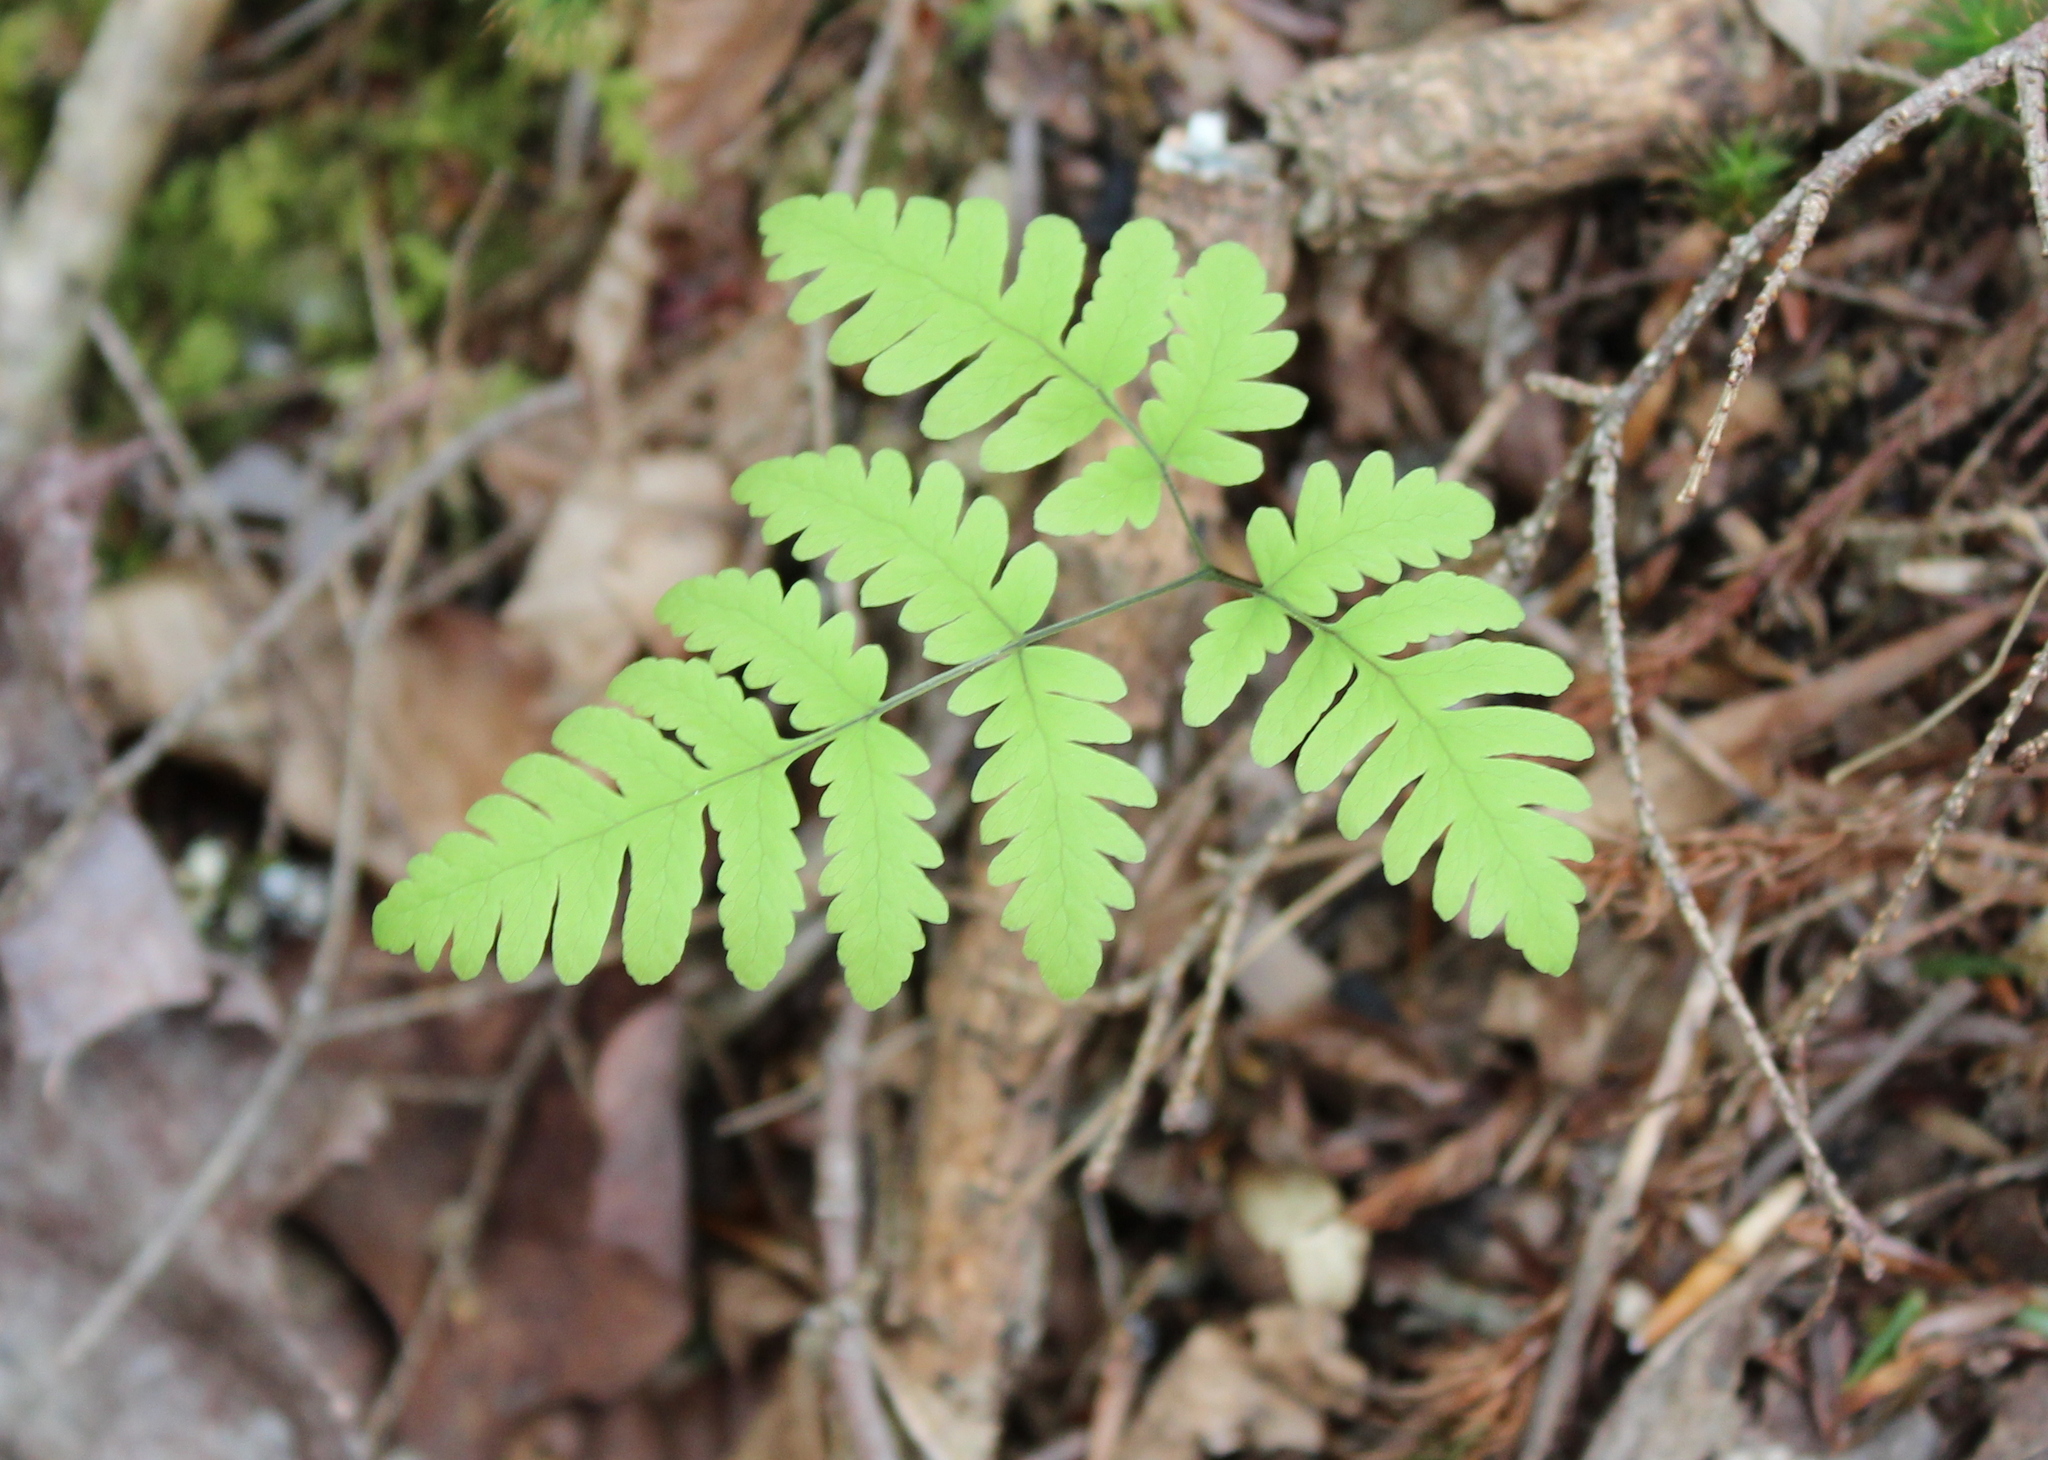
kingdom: Plantae
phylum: Tracheophyta
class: Polypodiopsida
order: Polypodiales
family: Cystopteridaceae
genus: Gymnocarpium
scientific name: Gymnocarpium dryopteris
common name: Oak fern
